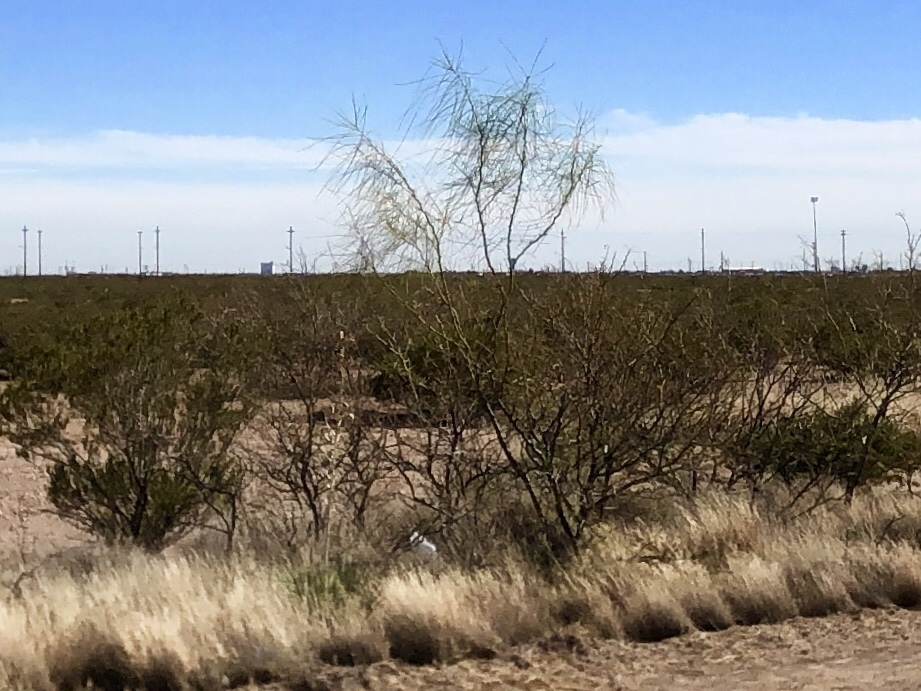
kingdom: Plantae
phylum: Tracheophyta
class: Magnoliopsida
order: Fabales
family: Fabaceae
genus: Parkinsonia
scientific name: Parkinsonia aculeata
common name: Jerusalem thorn
